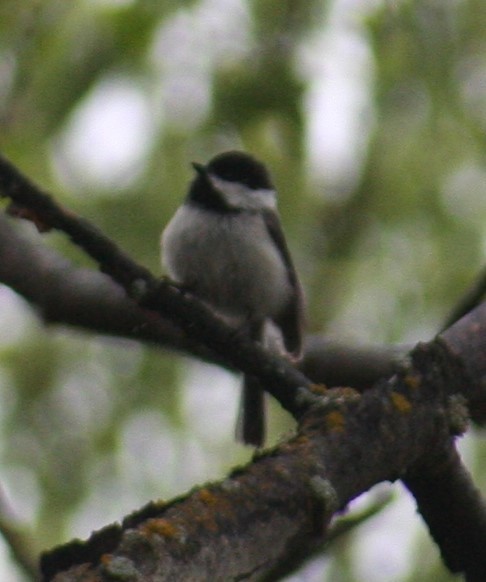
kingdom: Animalia
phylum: Chordata
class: Aves
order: Passeriformes
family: Paridae
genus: Poecile
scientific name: Poecile atricapillus
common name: Black-capped chickadee
